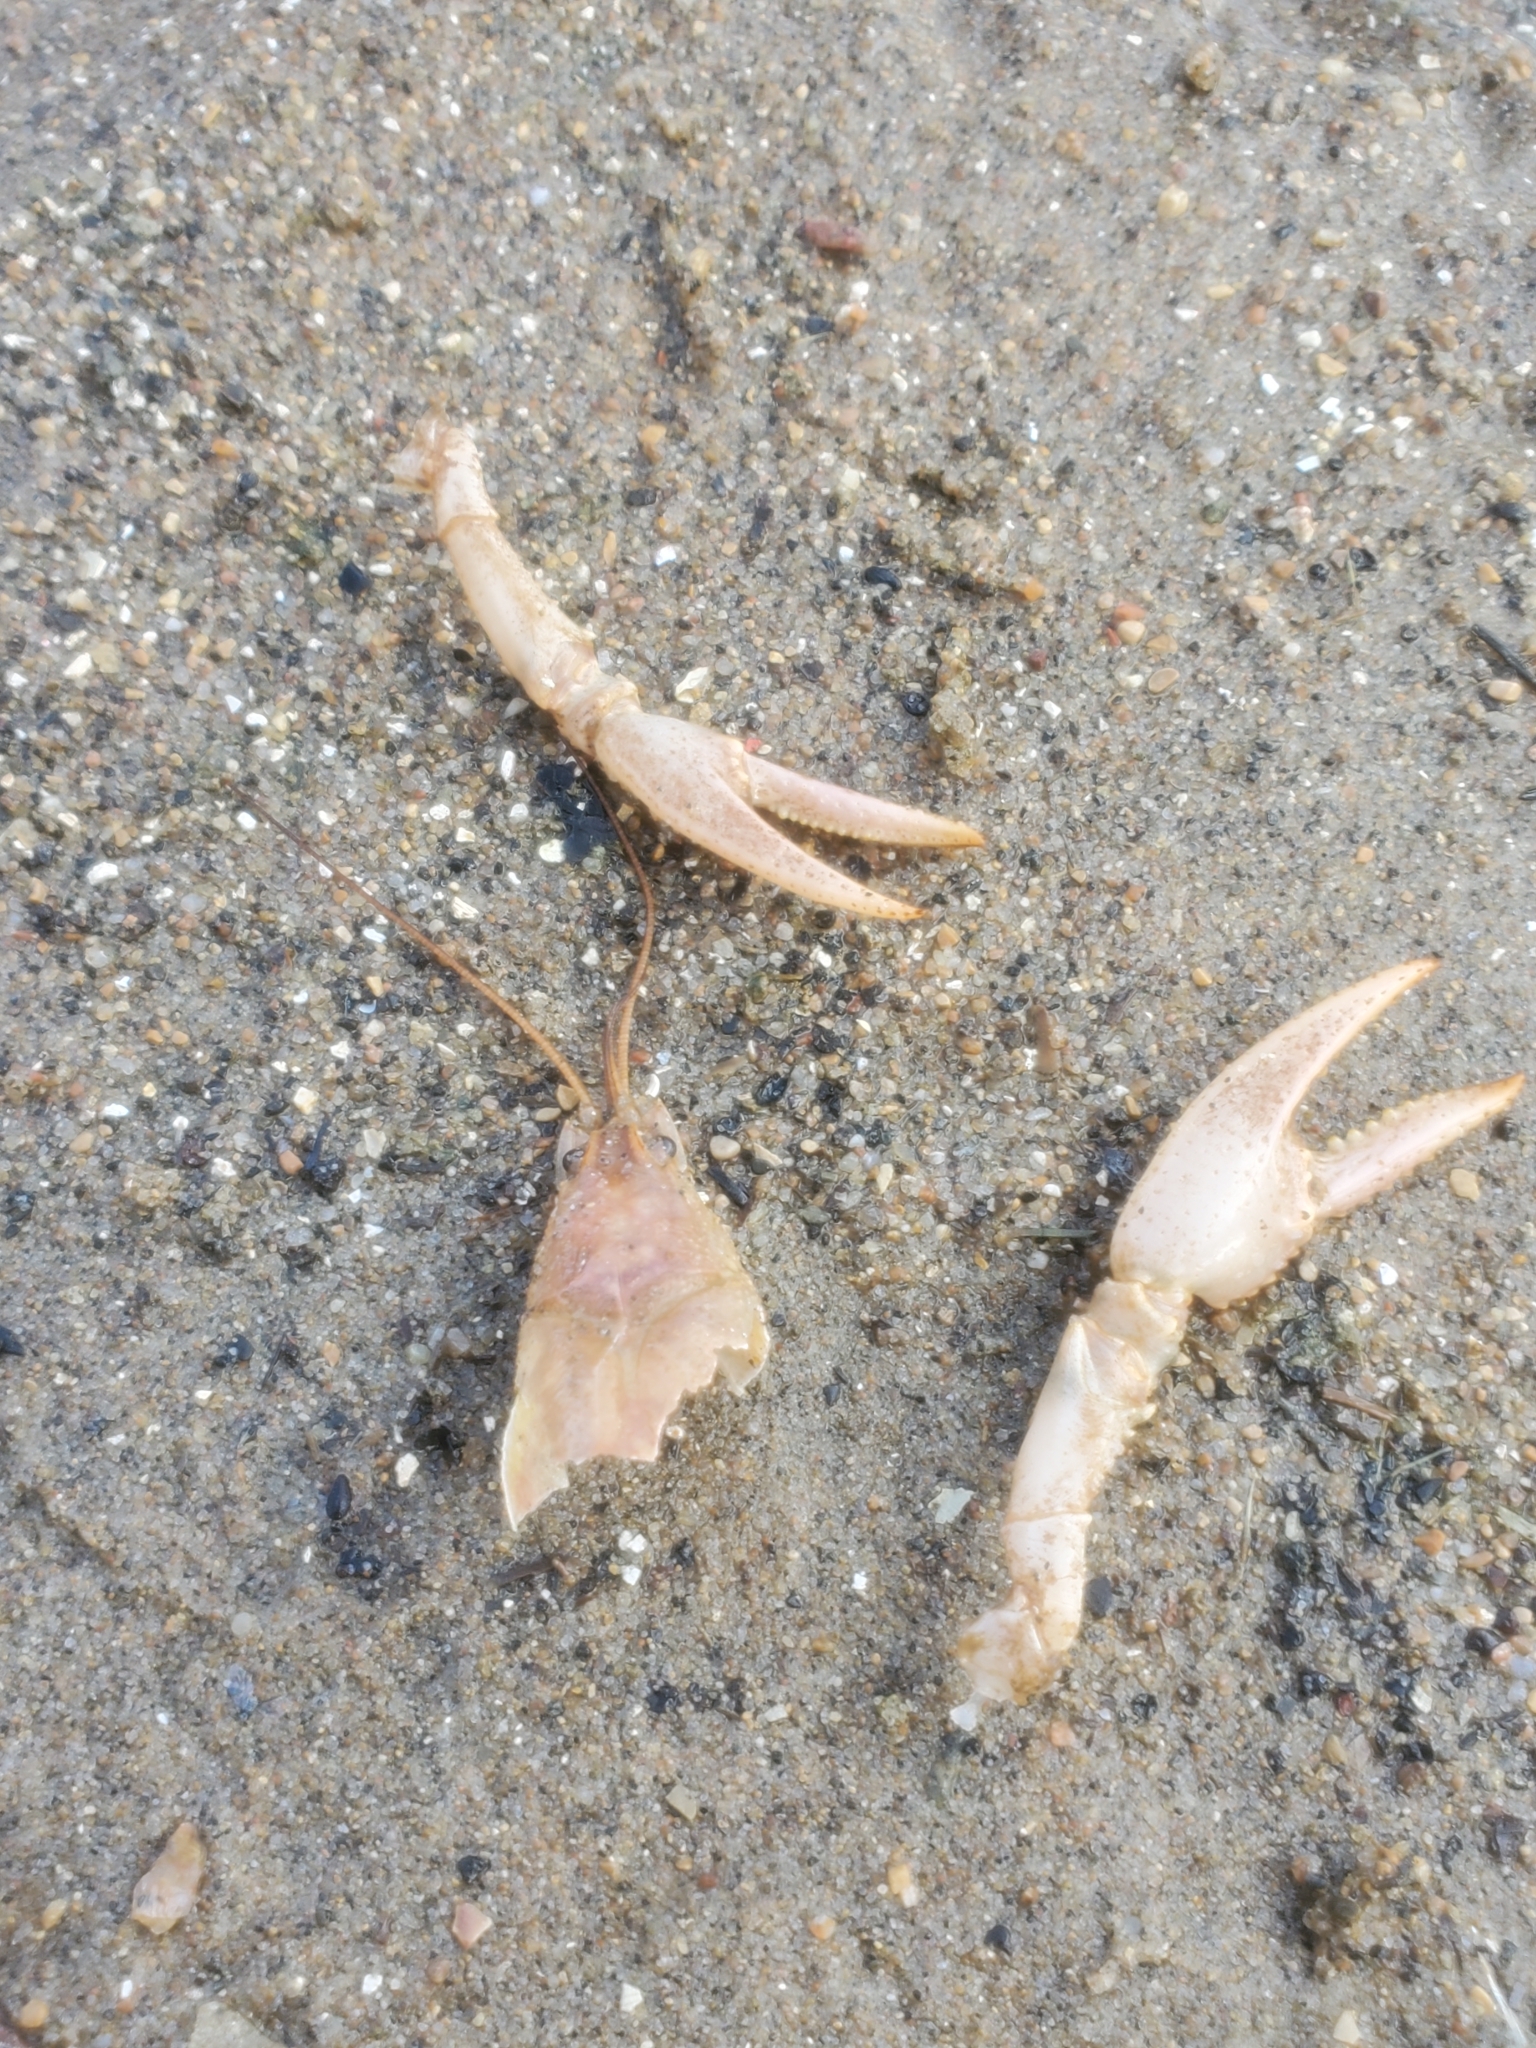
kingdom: Animalia
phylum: Arthropoda
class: Malacostraca
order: Decapoda
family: Cambaridae
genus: Faxonius
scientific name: Faxonius virilis
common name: Virile crayfish
